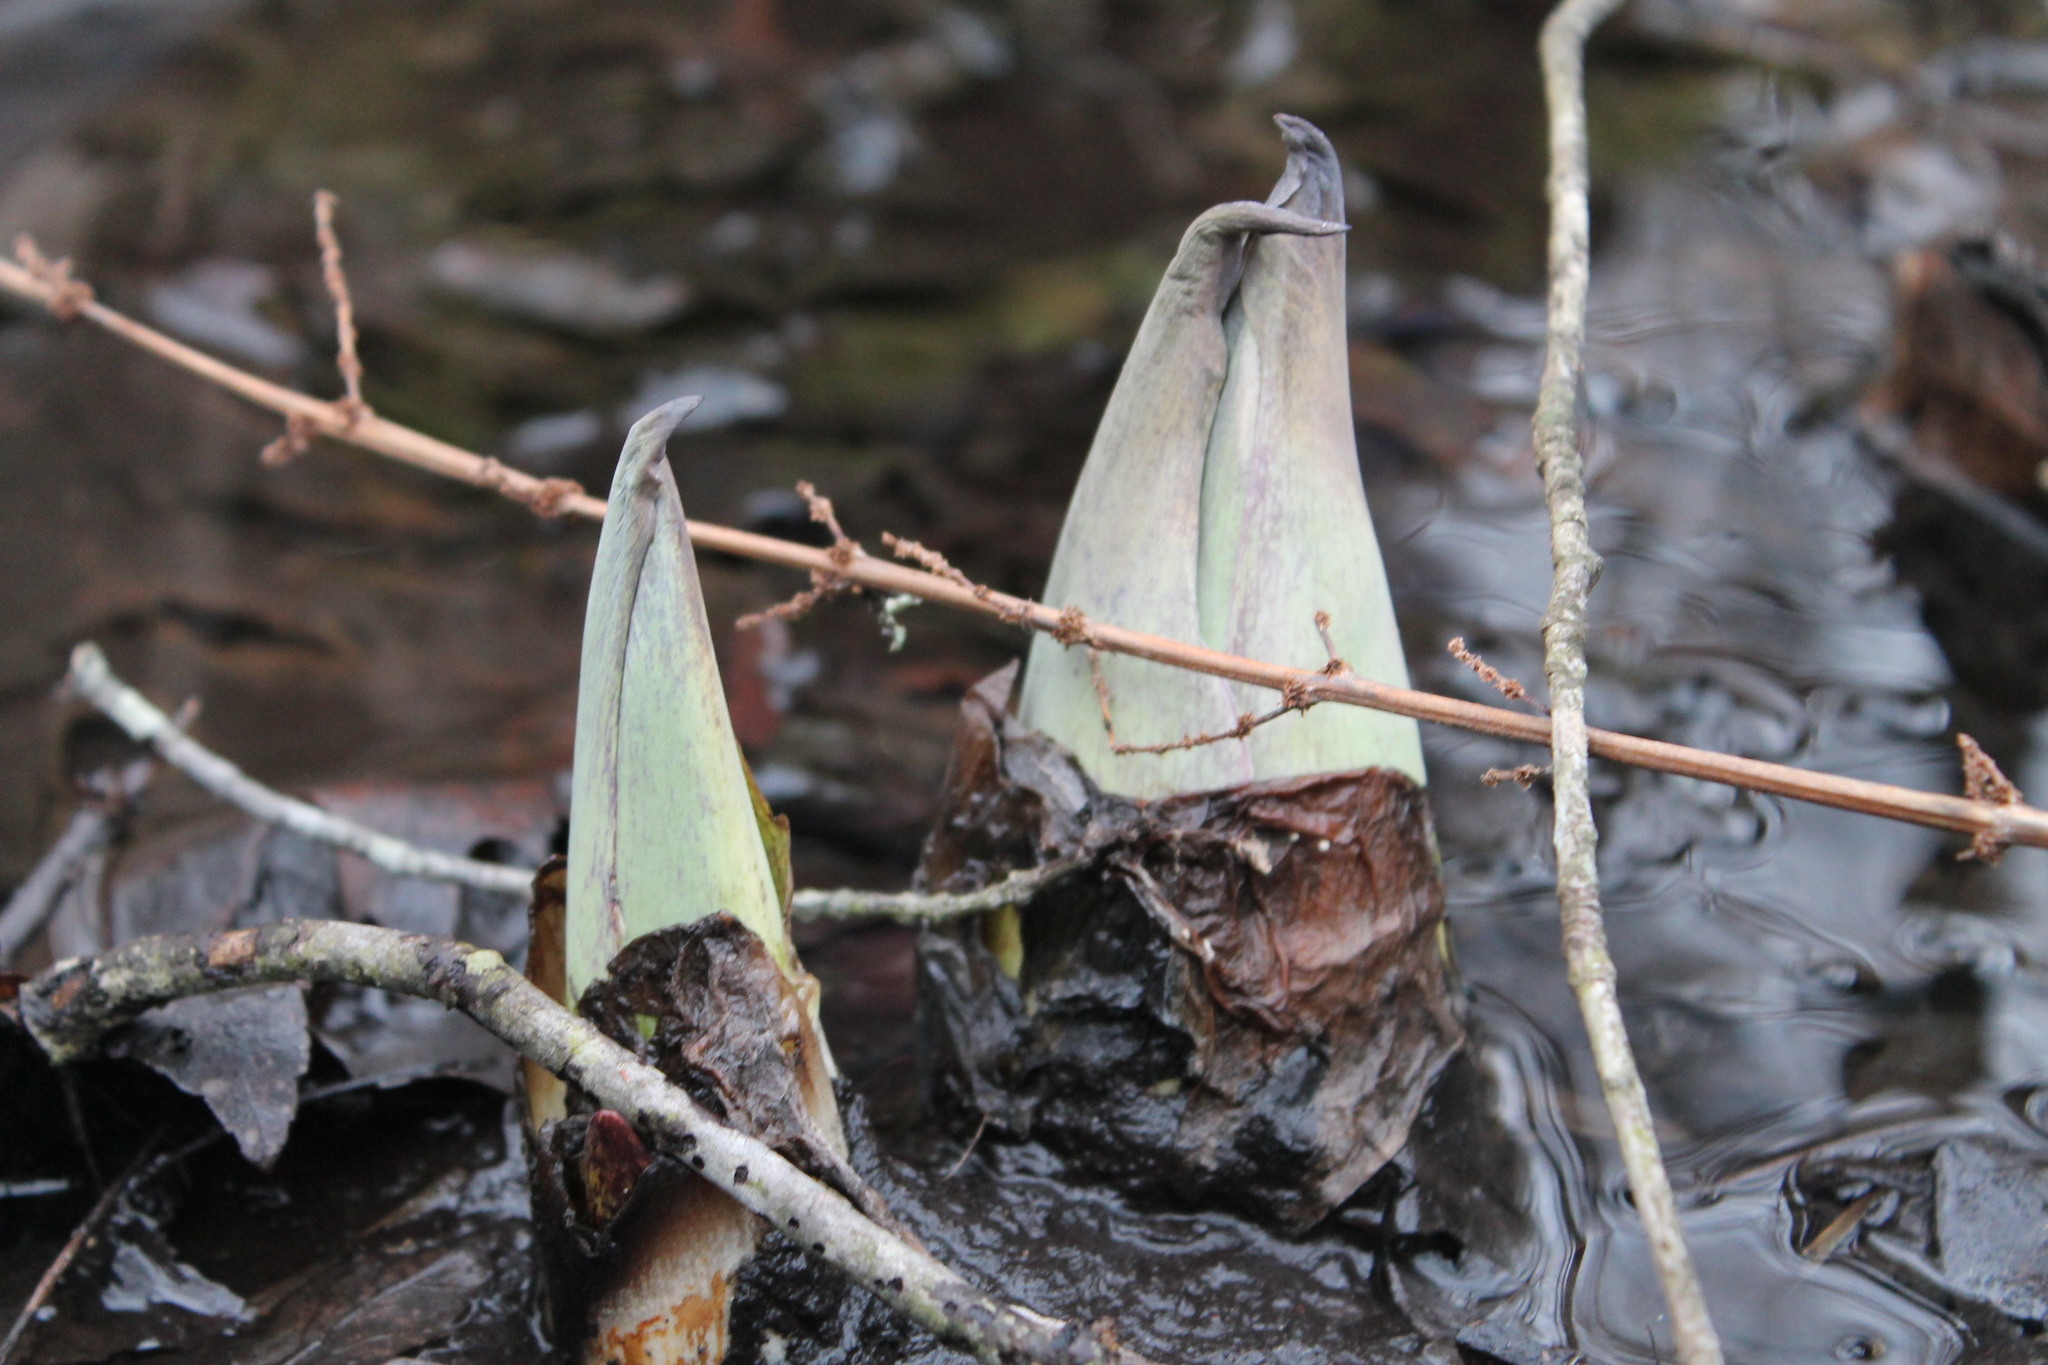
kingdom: Plantae
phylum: Tracheophyta
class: Liliopsida
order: Alismatales
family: Araceae
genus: Symplocarpus
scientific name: Symplocarpus foetidus
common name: Eastern skunk cabbage
